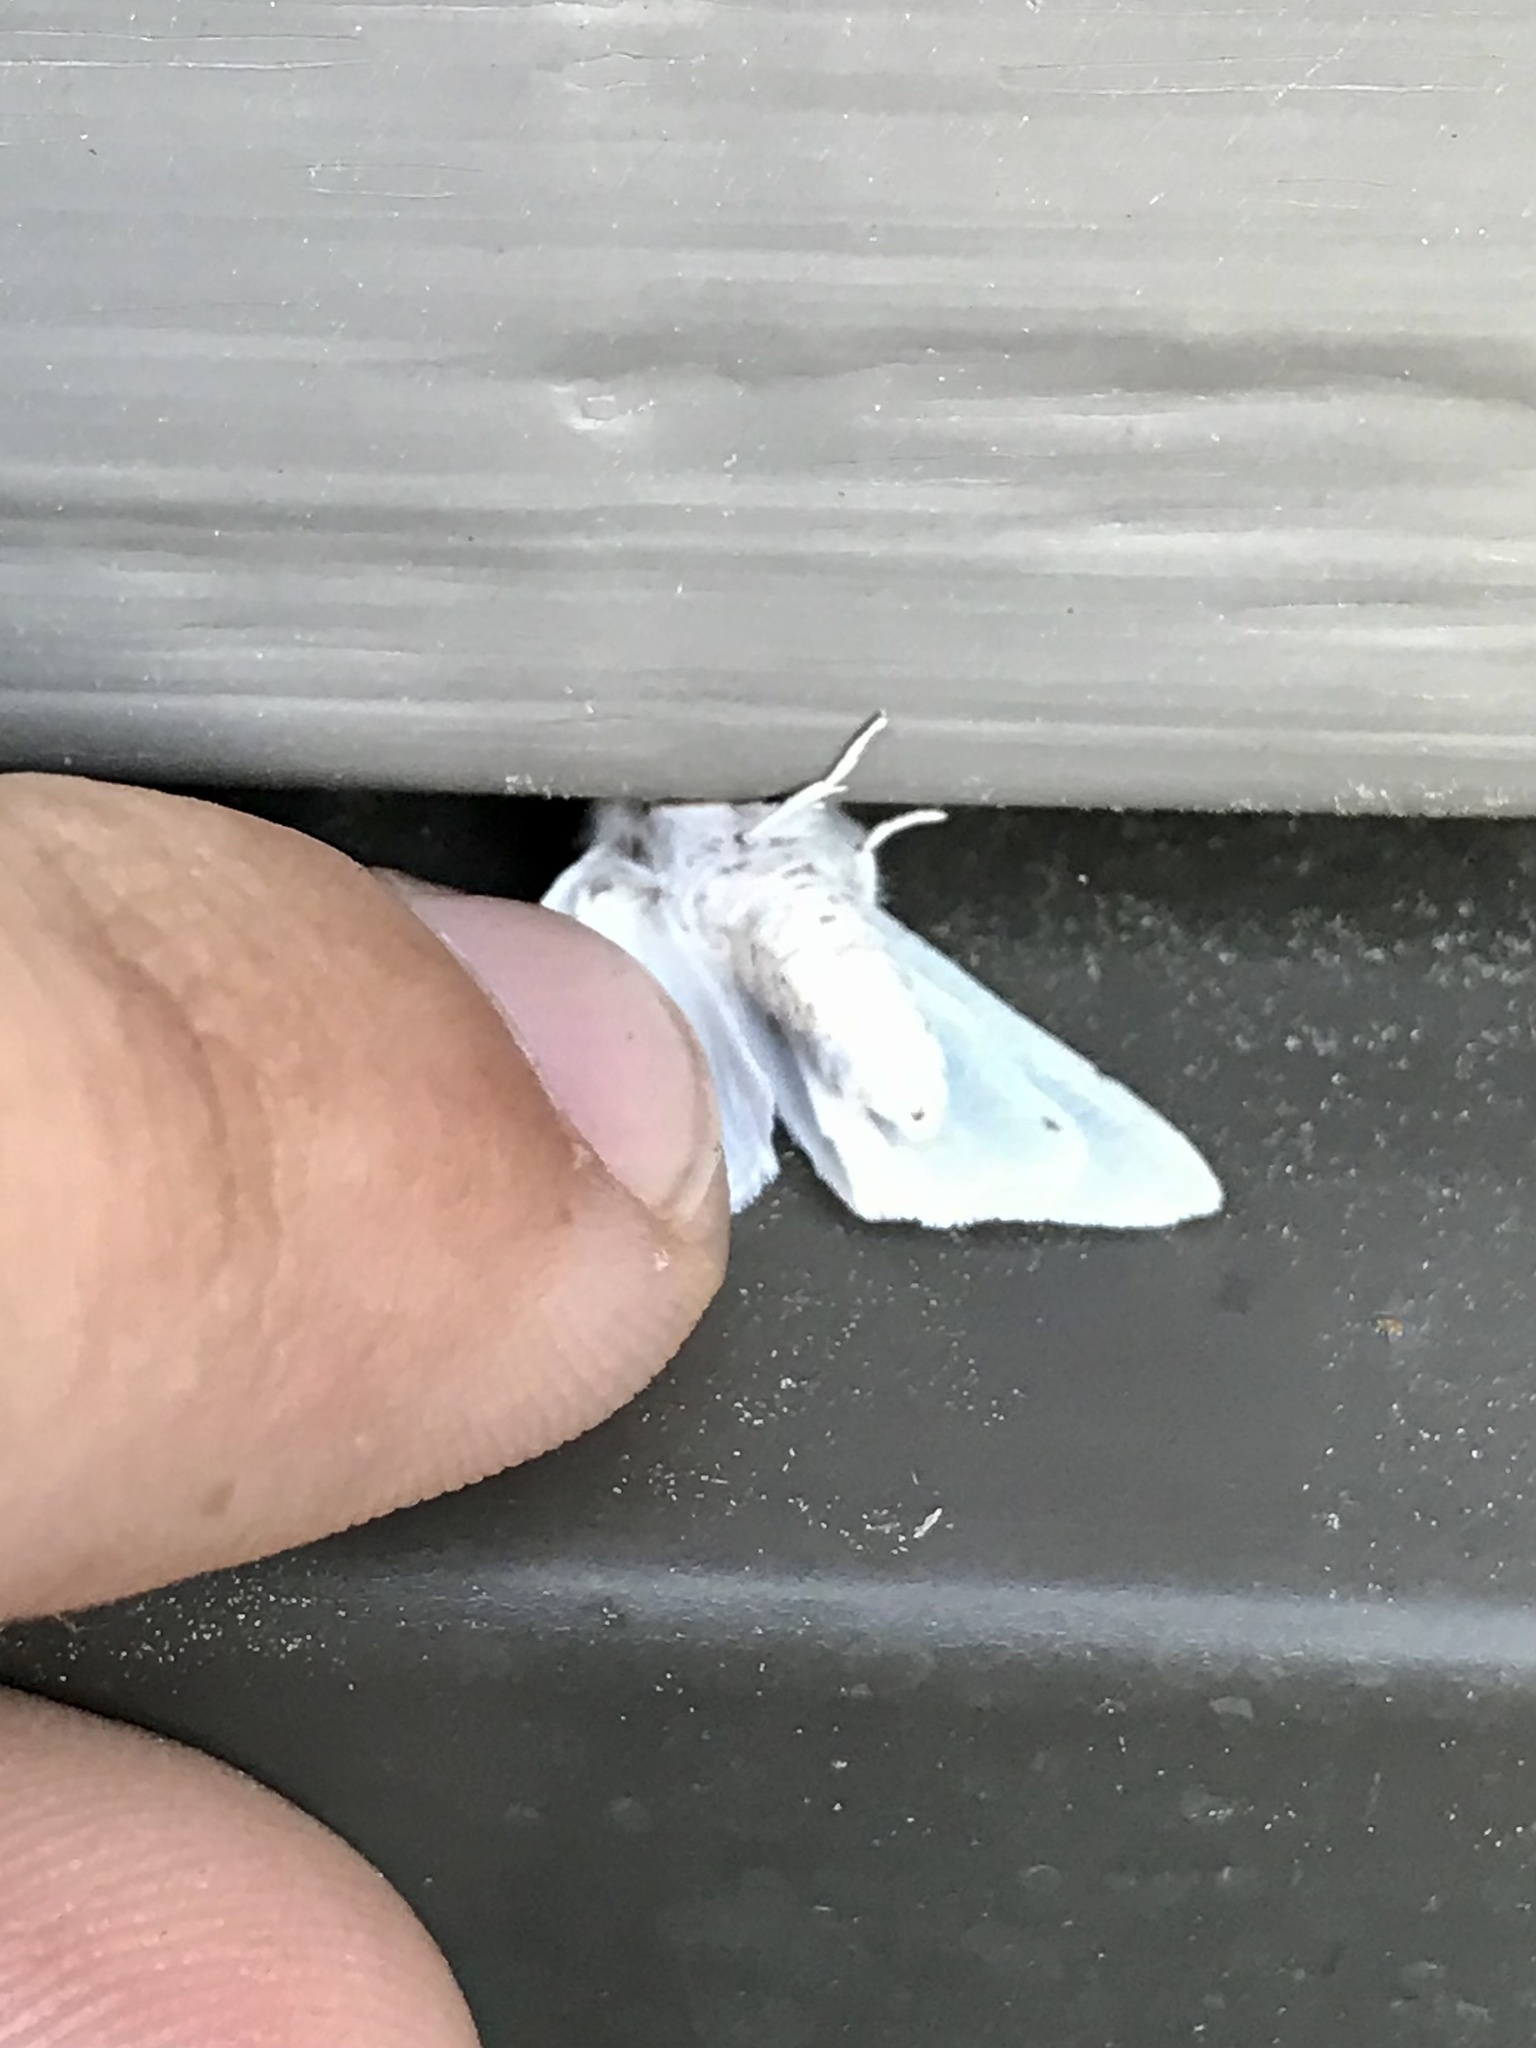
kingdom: Animalia
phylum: Arthropoda
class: Insecta
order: Lepidoptera
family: Erebidae
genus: Spilosoma
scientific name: Spilosoma congrua
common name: Agreeable tiger moth
